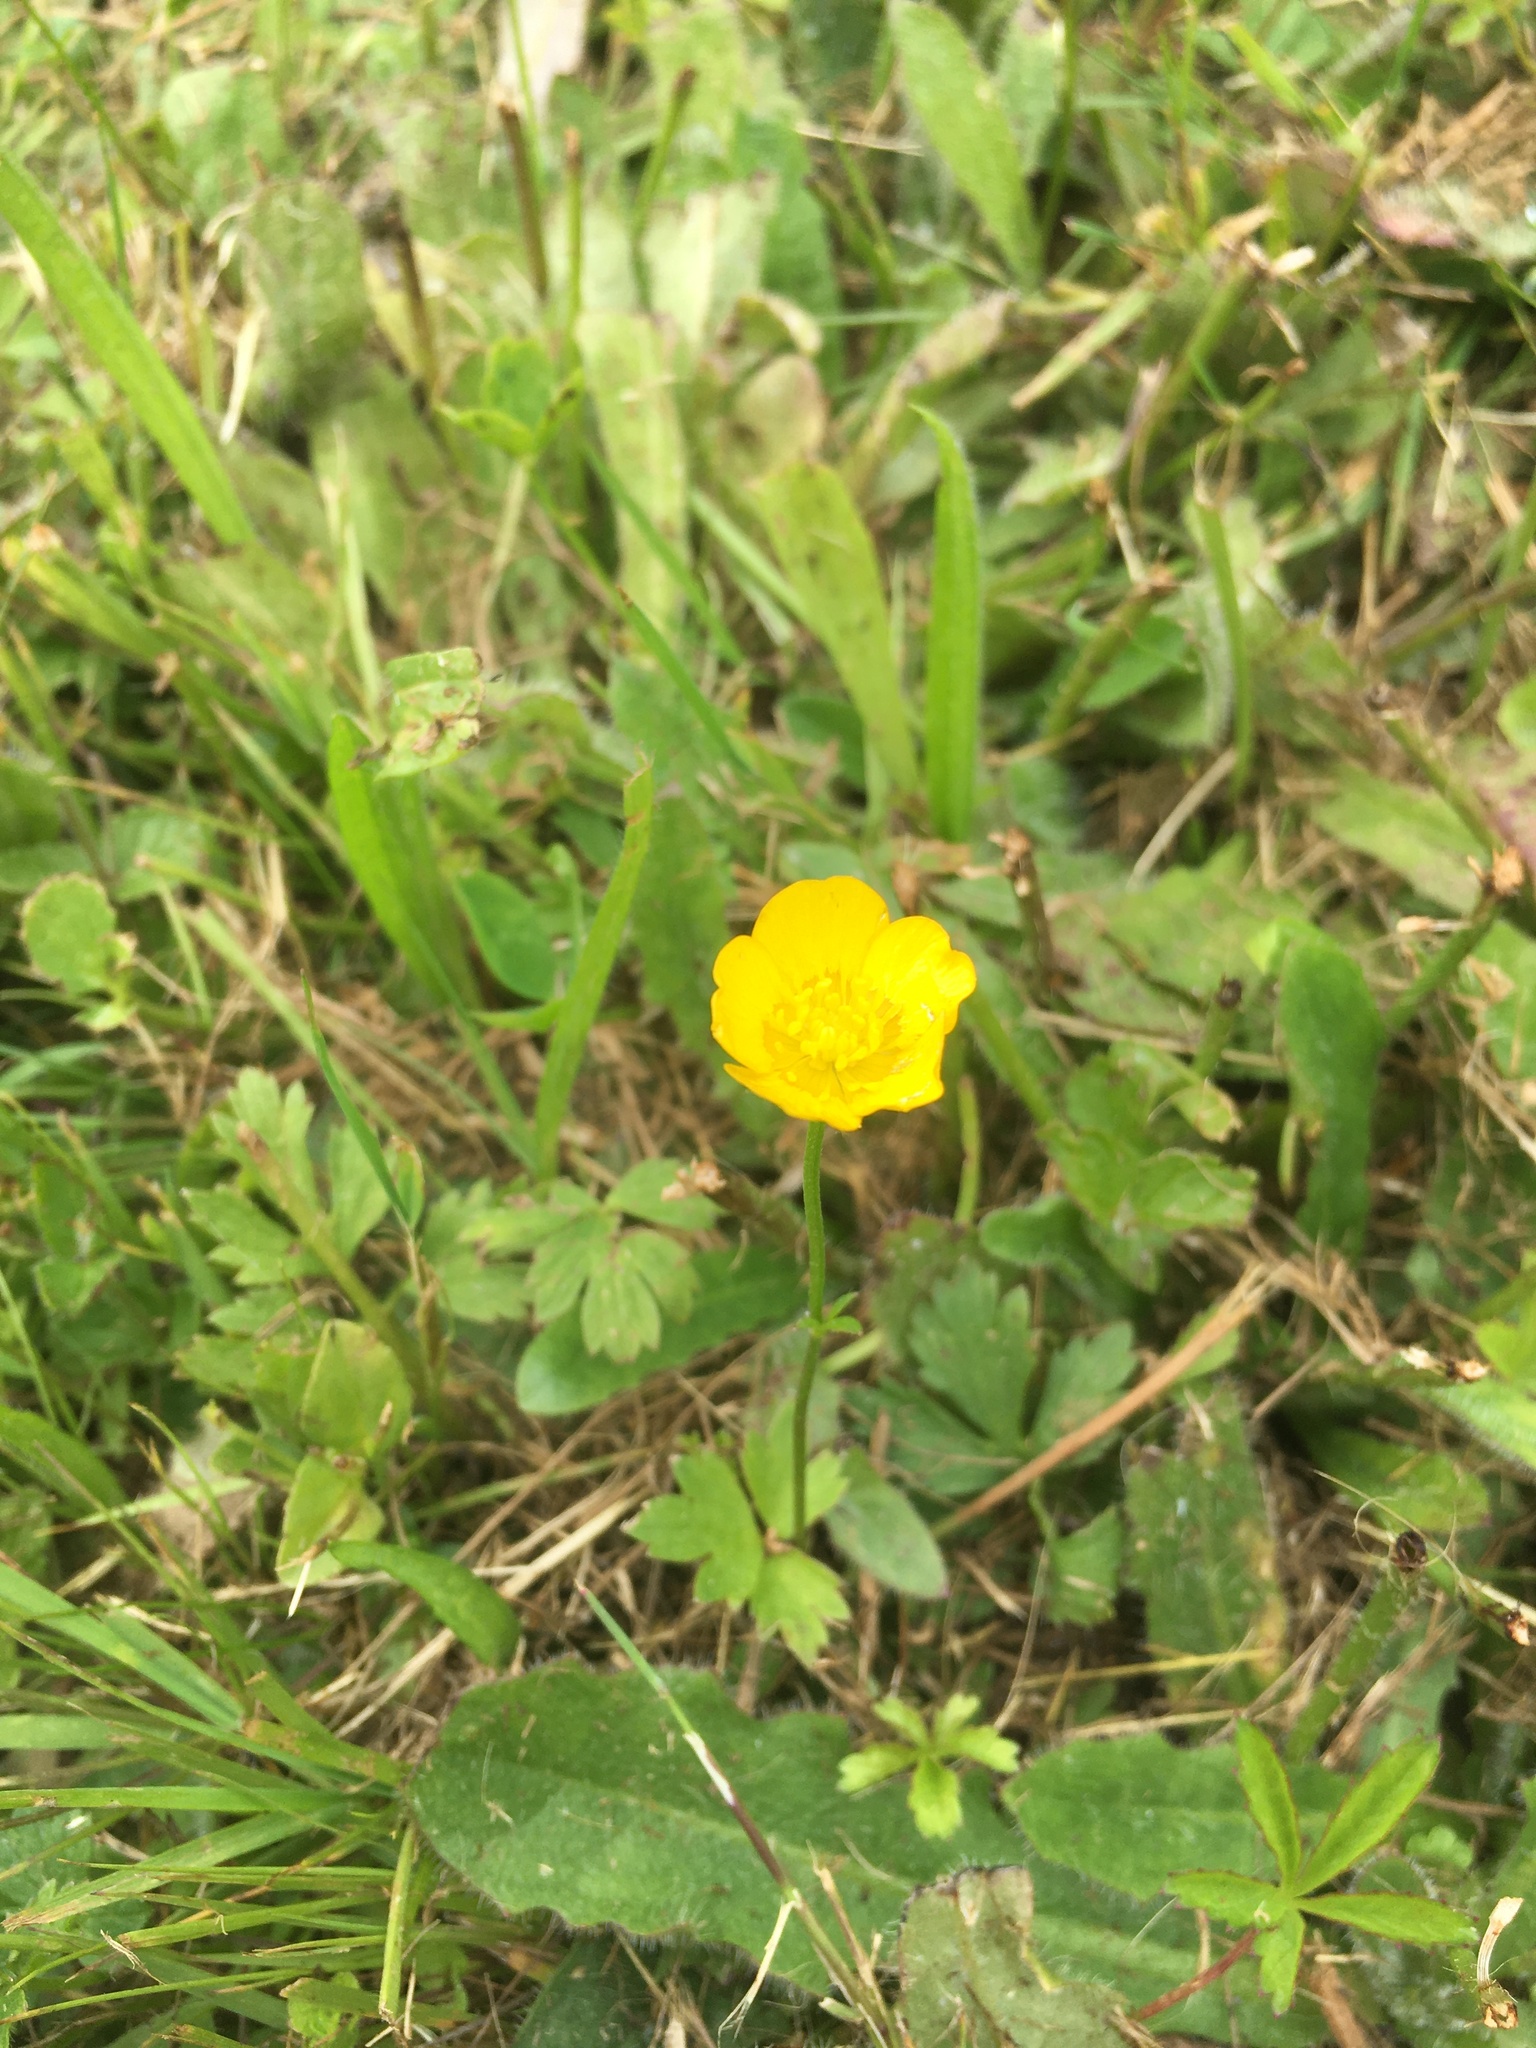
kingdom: Plantae
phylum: Tracheophyta
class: Magnoliopsida
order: Ranunculales
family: Ranunculaceae
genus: Ranunculus
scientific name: Ranunculus repens
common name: Creeping buttercup
